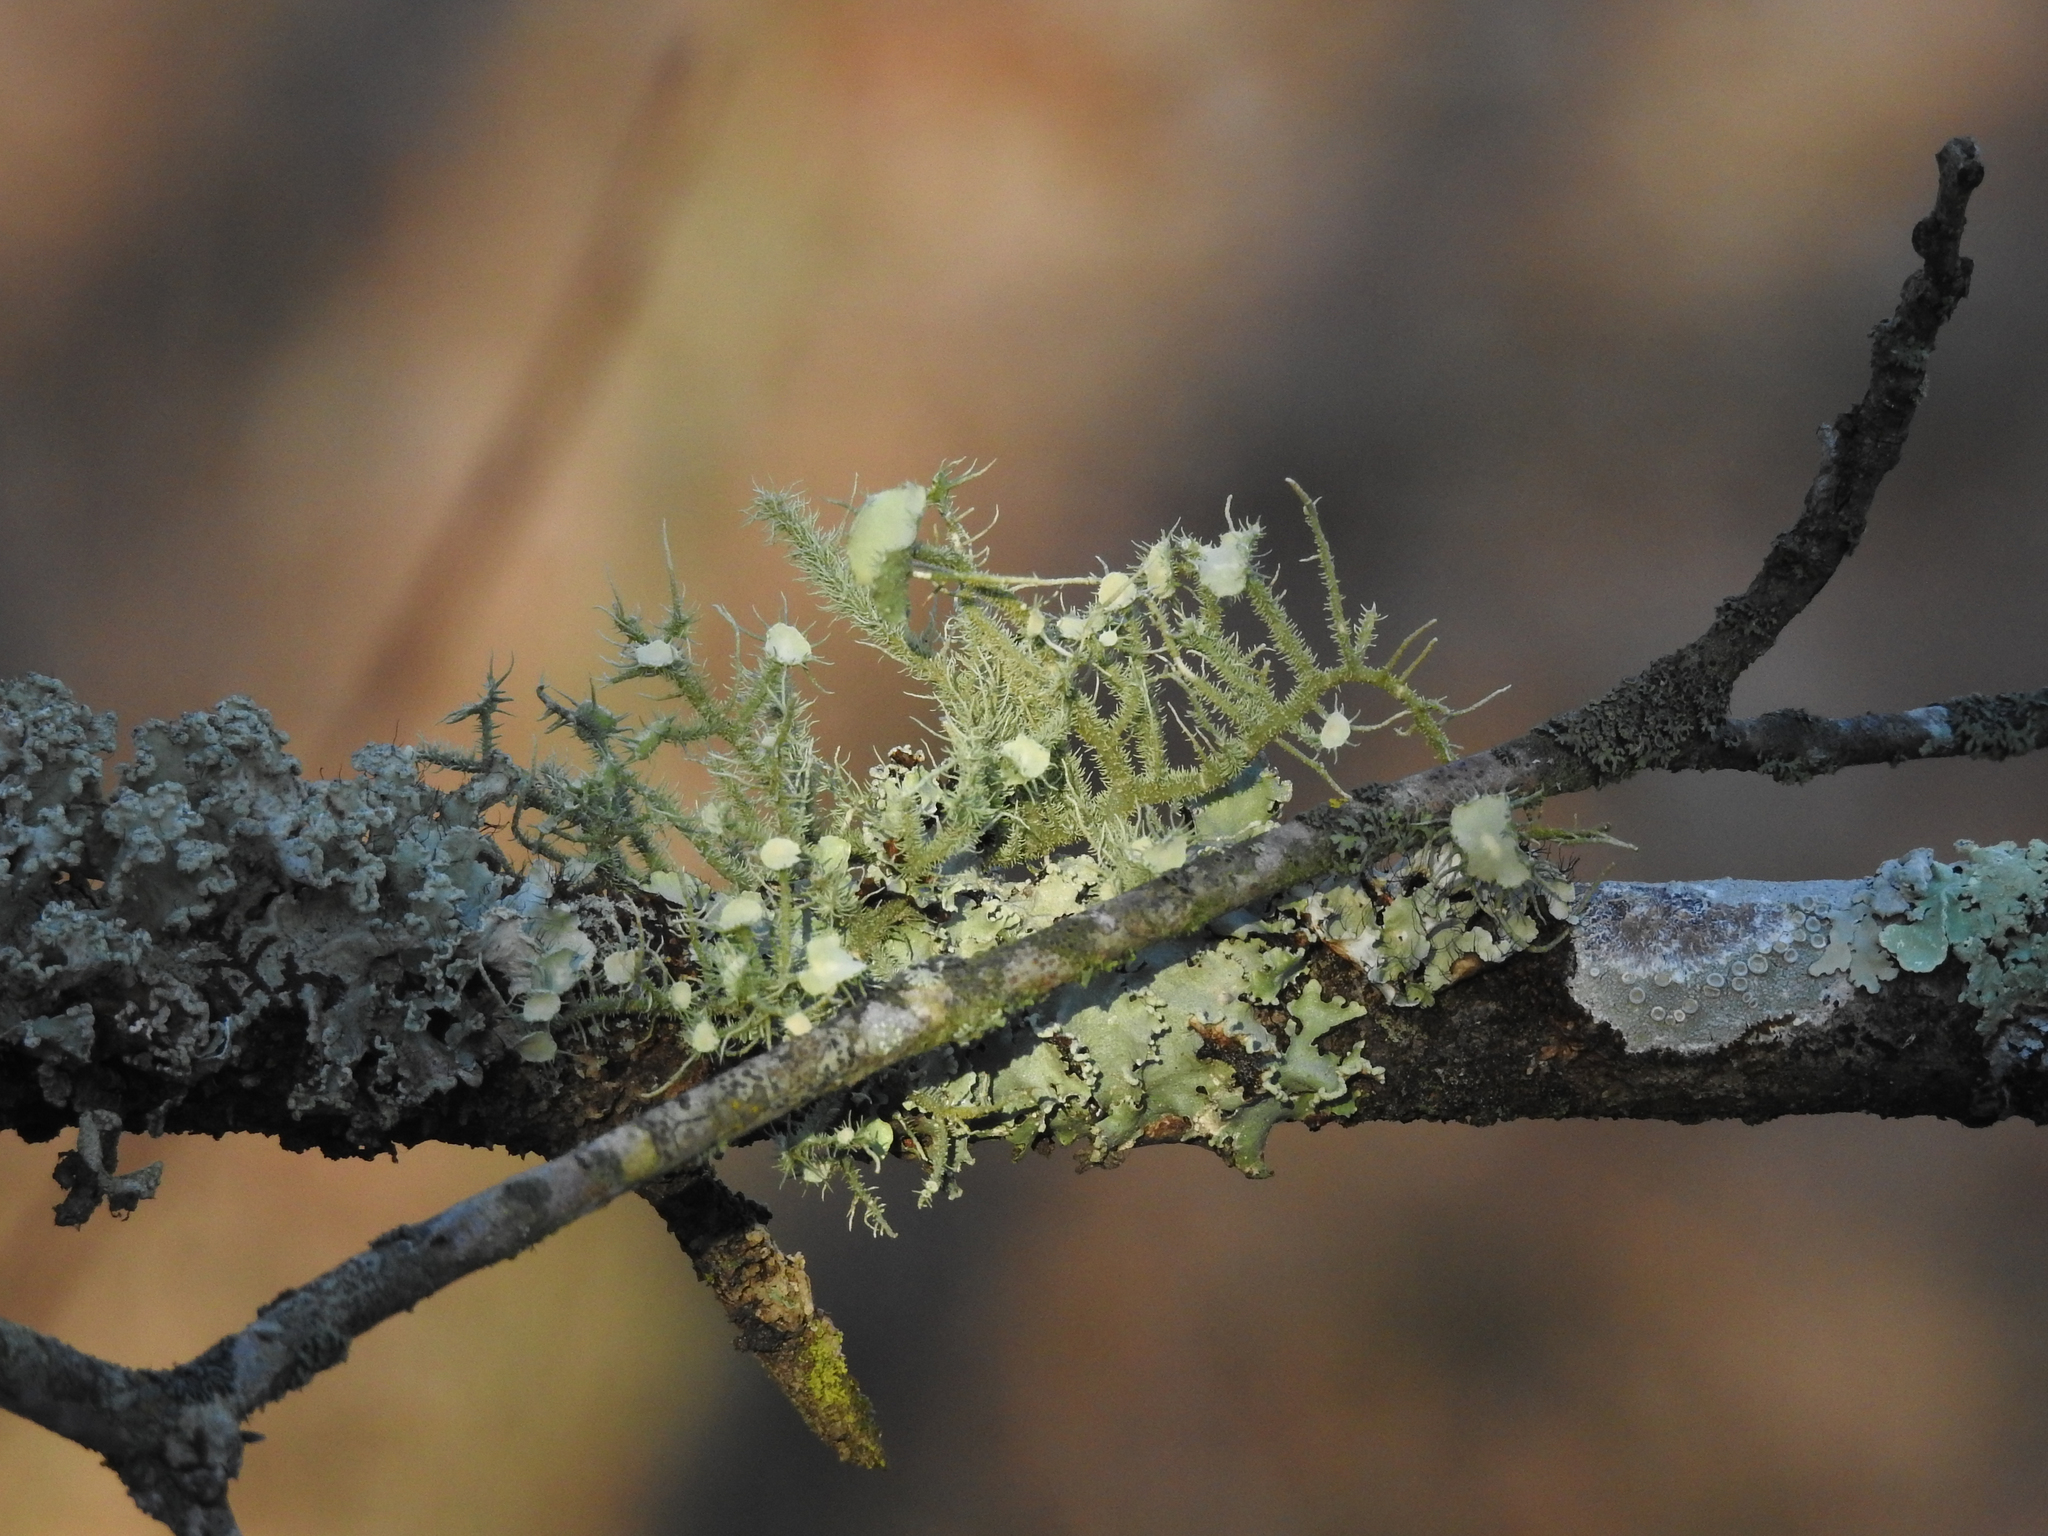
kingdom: Fungi
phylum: Ascomycota
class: Lecanoromycetes
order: Lecanorales
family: Parmeliaceae
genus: Usnea
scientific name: Usnea strigosa
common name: Bushy beard lichen
